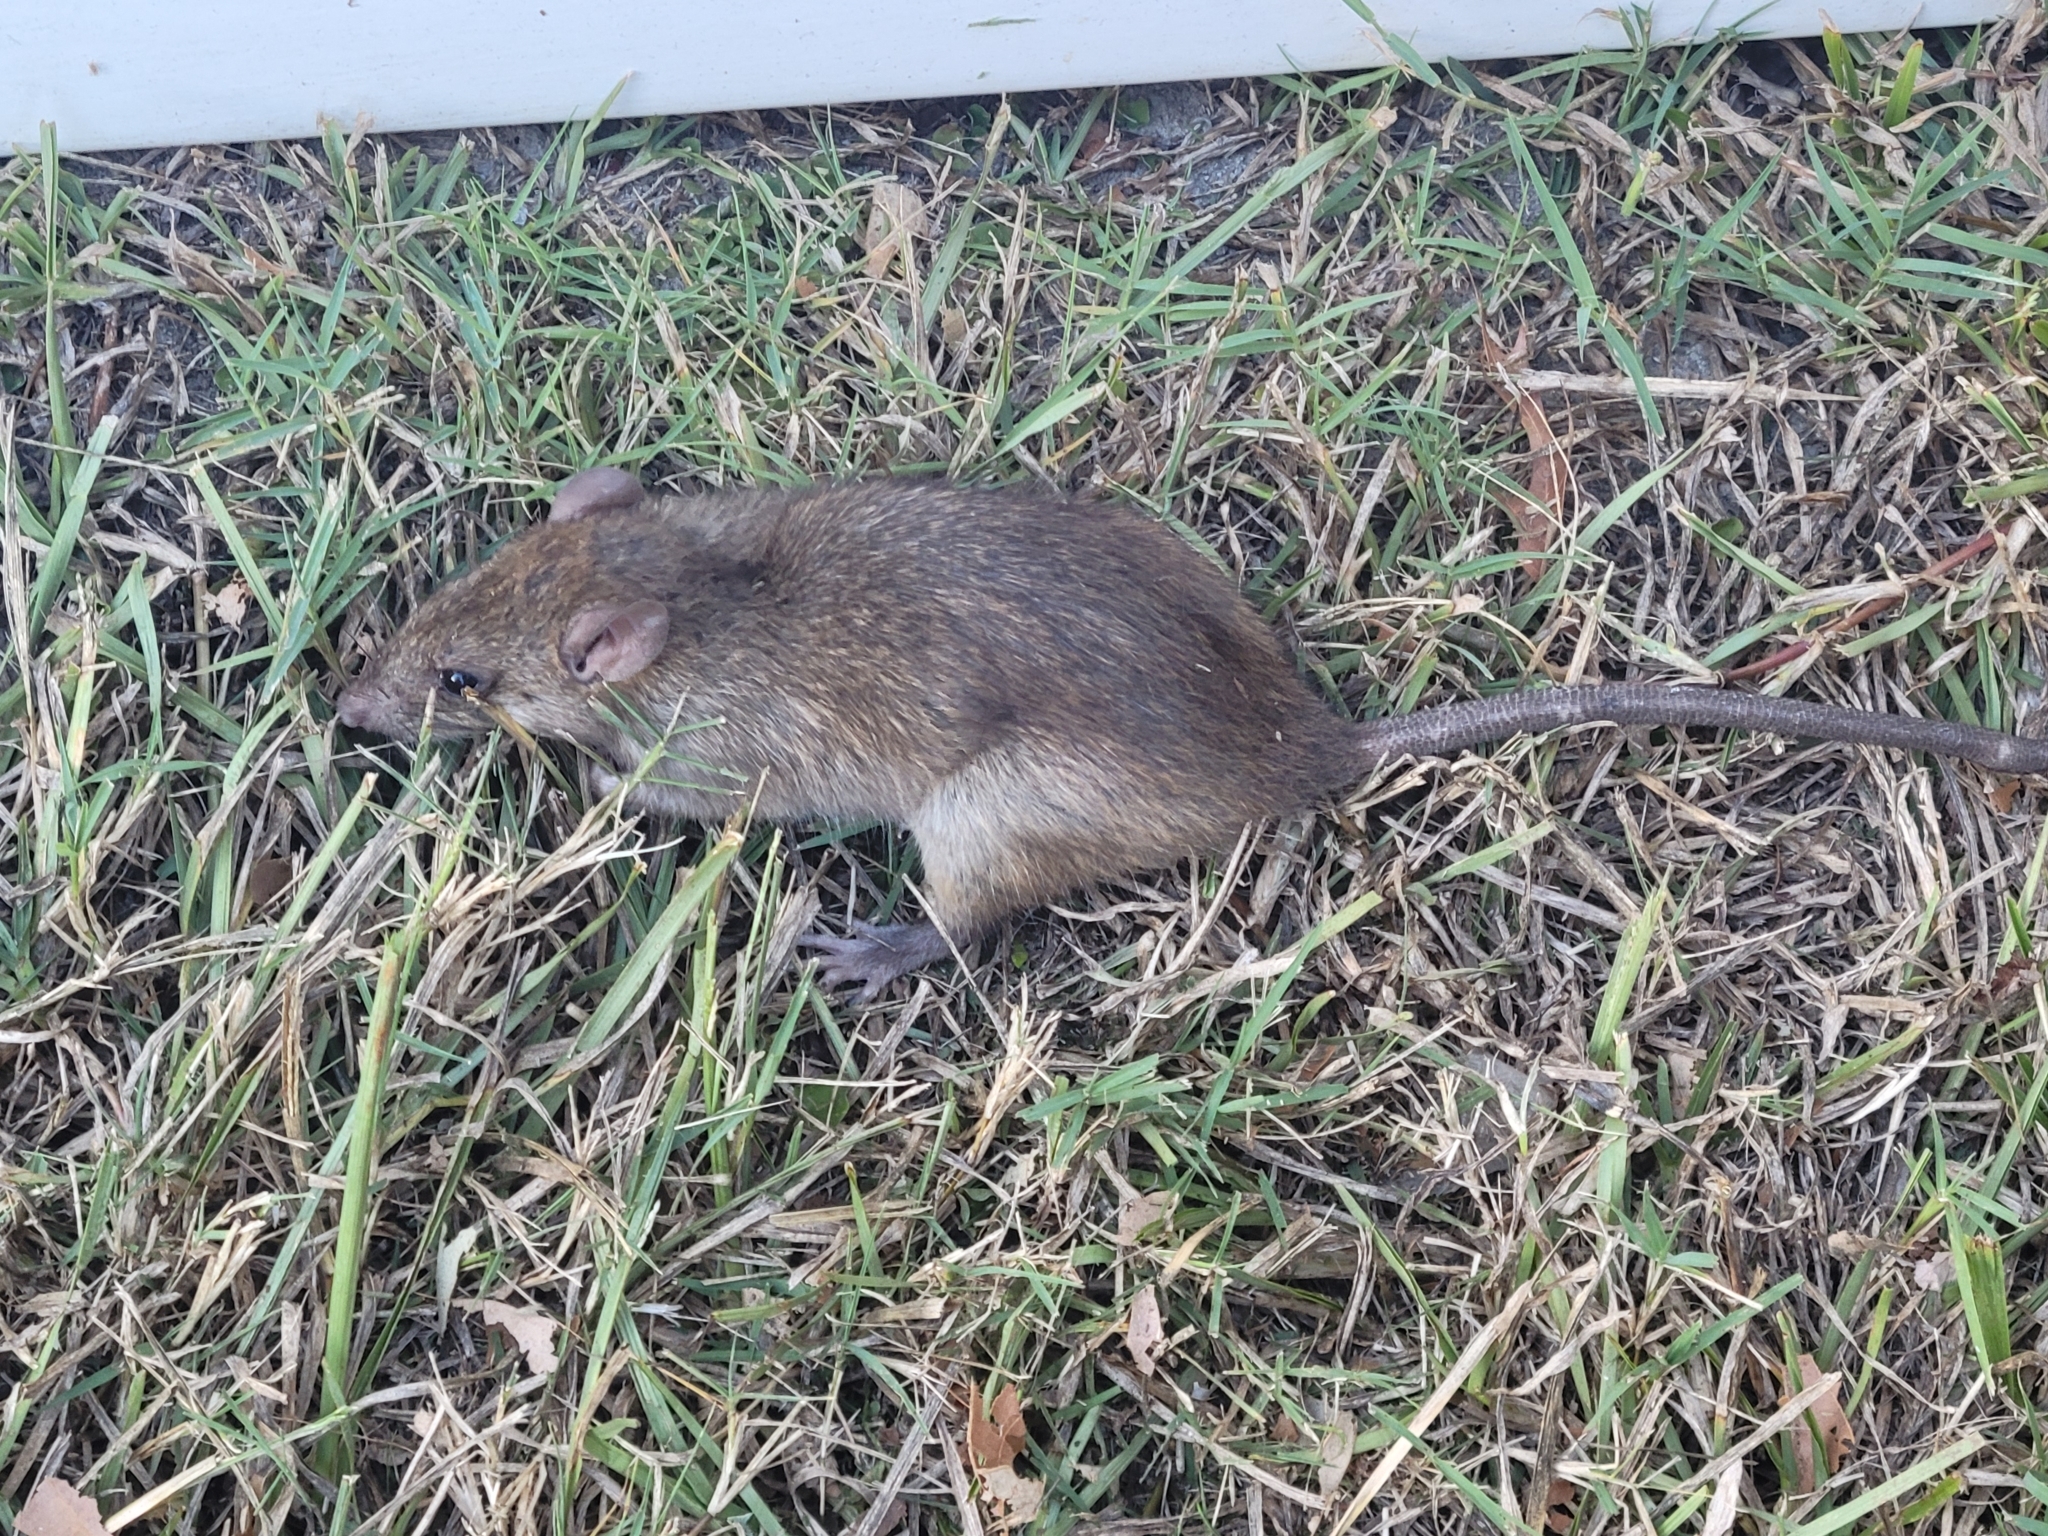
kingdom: Animalia
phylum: Chordata
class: Mammalia
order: Rodentia
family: Muridae
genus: Rattus
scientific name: Rattus rattus
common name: Black rat
